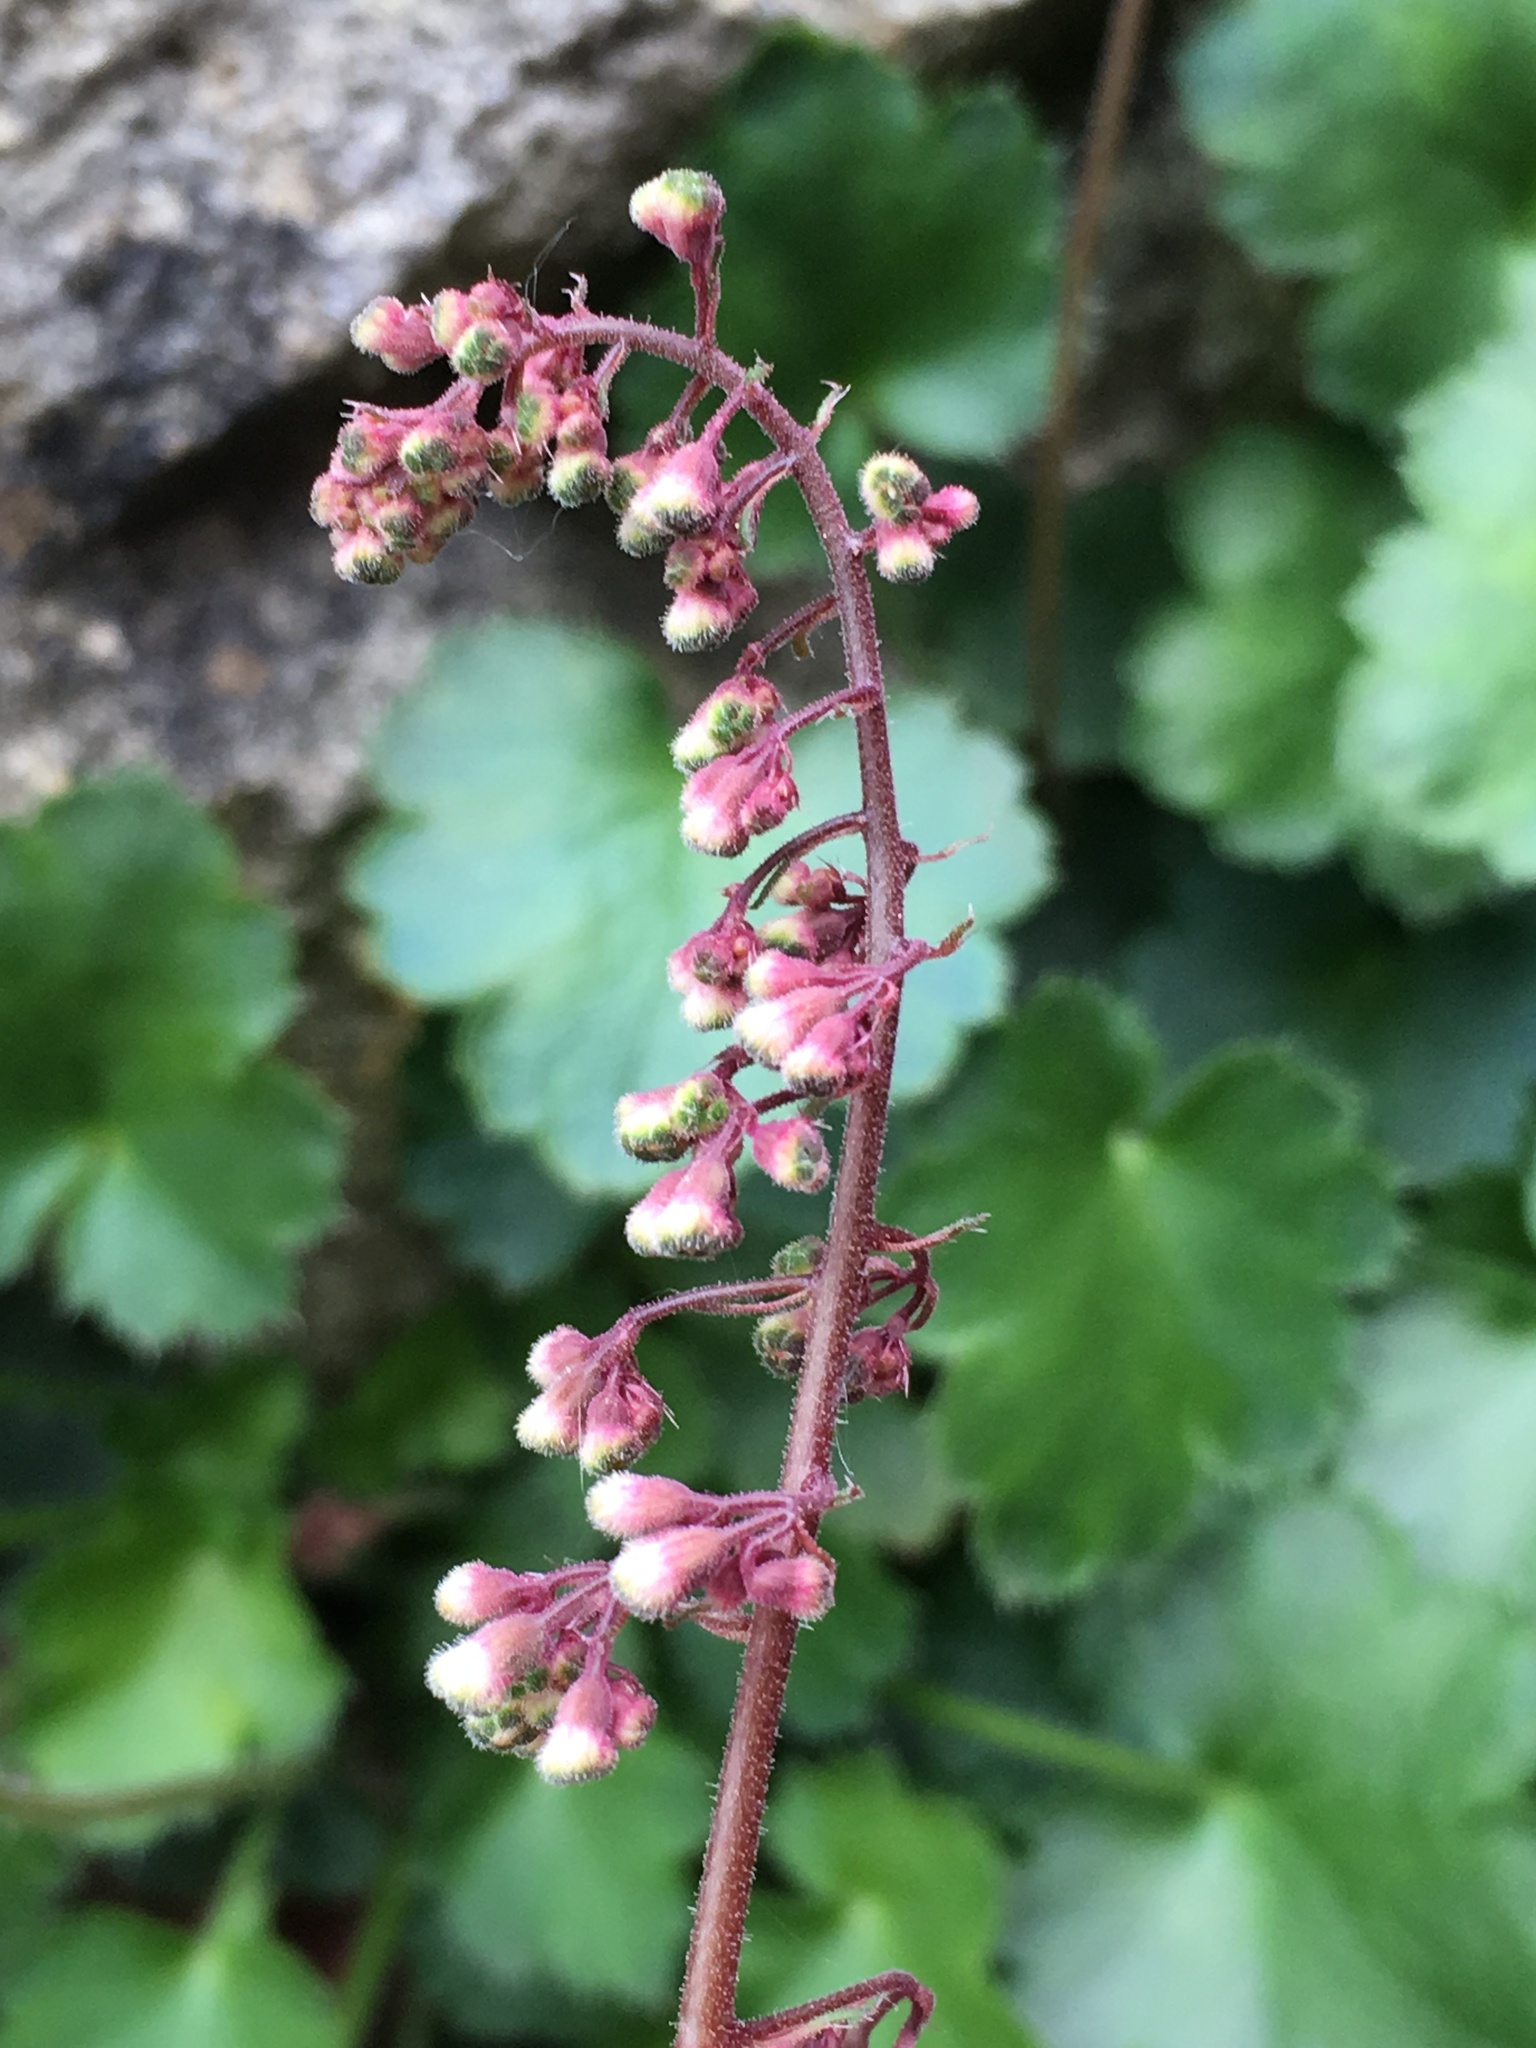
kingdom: Plantae
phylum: Tracheophyta
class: Magnoliopsida
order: Saxifragales
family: Saxifragaceae
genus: Heuchera
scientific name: Heuchera rubescens
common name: Jack-o'the-rocks
